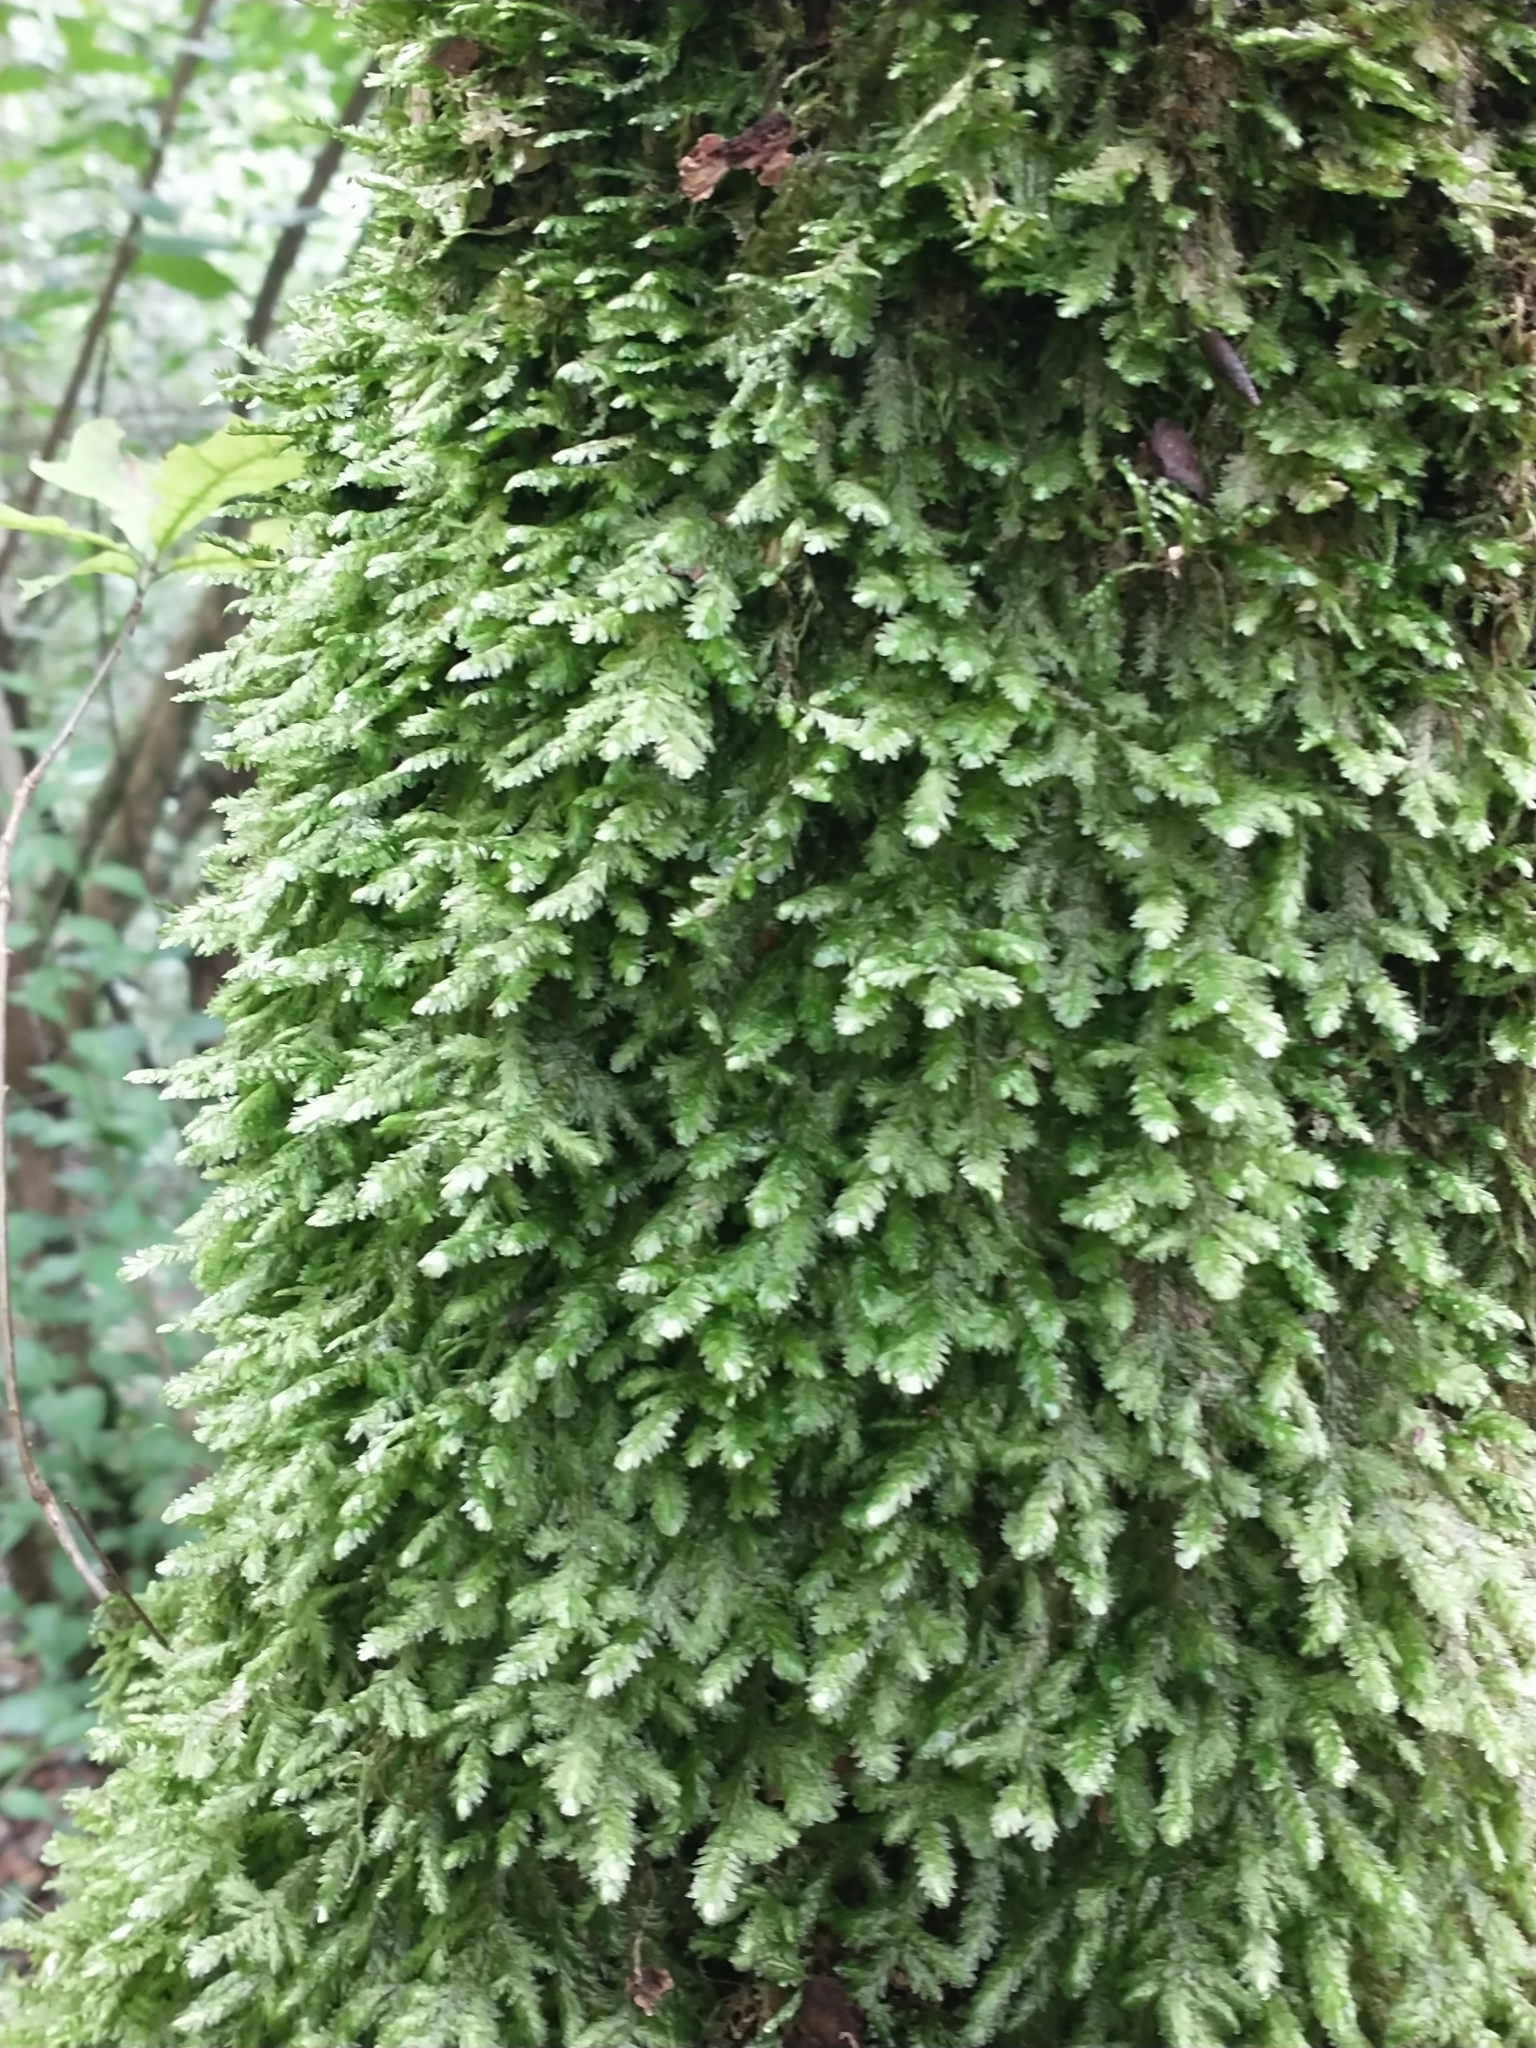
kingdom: Plantae
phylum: Bryophyta
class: Bryopsida
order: Hypnales
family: Neckeraceae
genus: Exsertotheca
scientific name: Exsertotheca crispa
